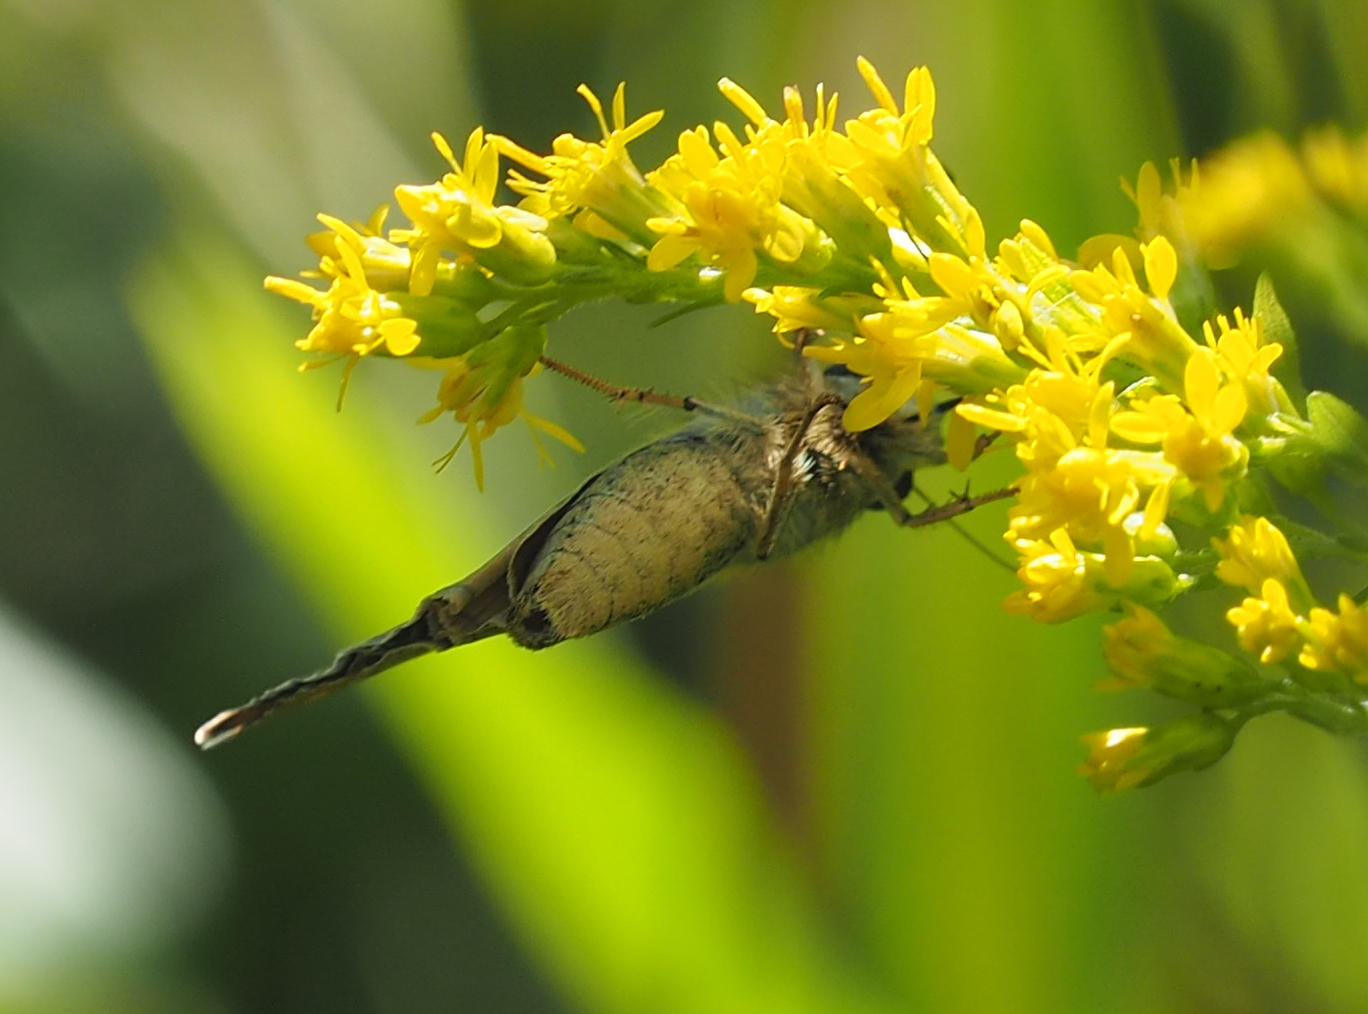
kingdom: Animalia
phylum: Arthropoda
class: Insecta
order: Lepidoptera
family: Hesperiidae
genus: Atalopedes
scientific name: Atalopedes
